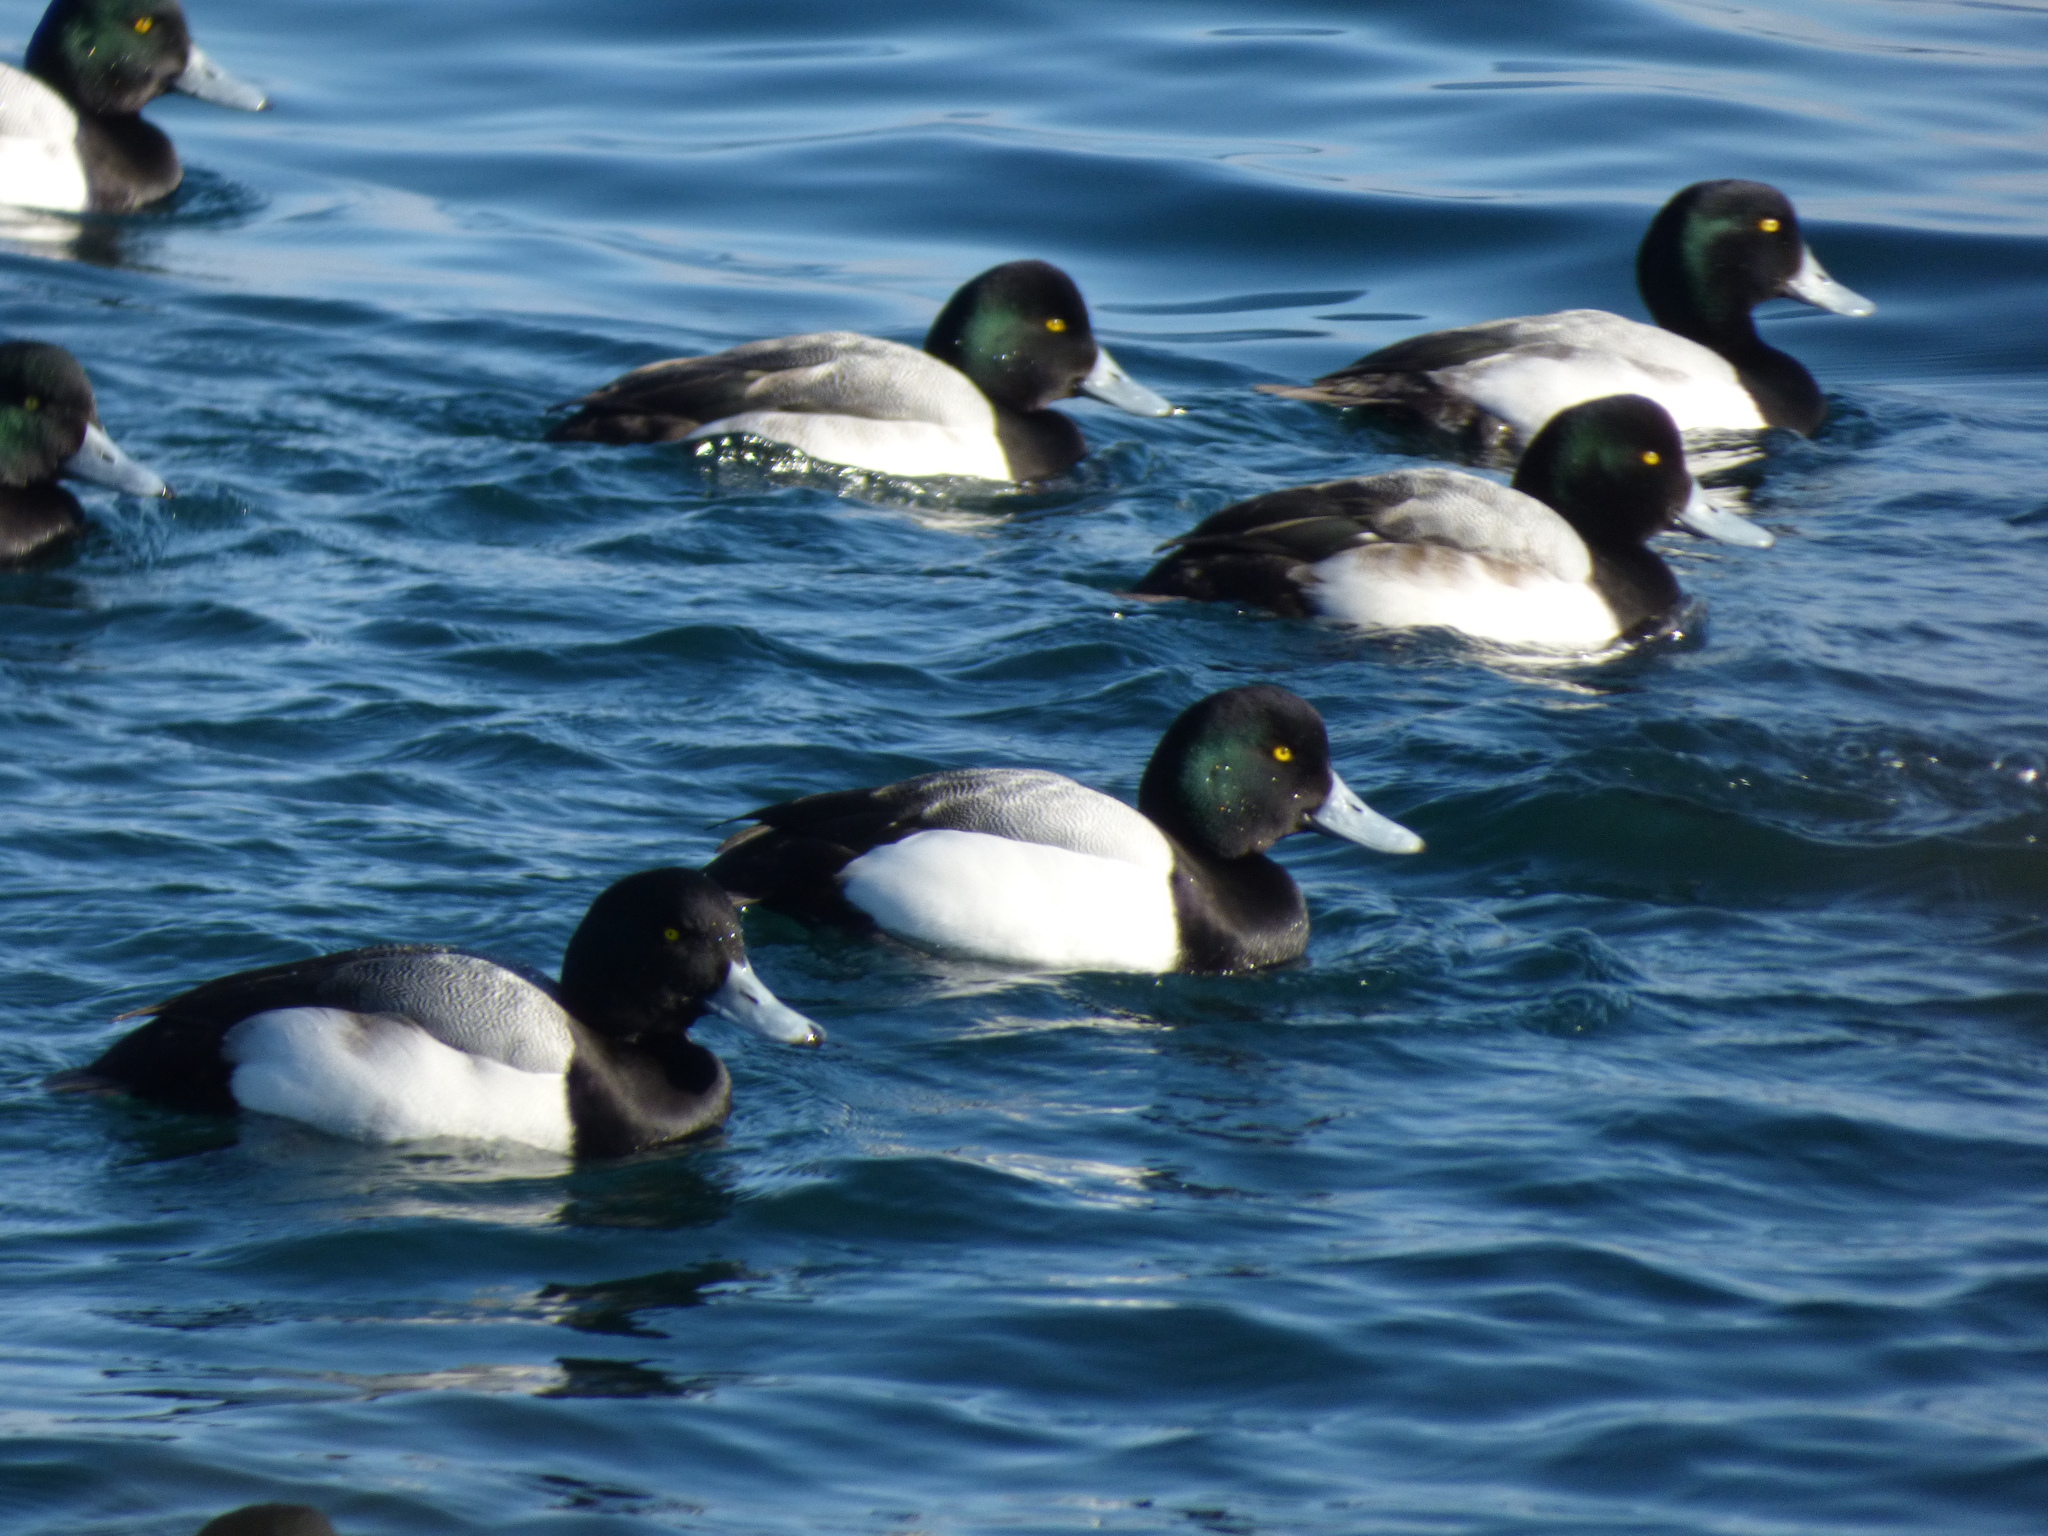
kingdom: Animalia
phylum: Chordata
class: Aves
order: Anseriformes
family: Anatidae
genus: Aythya
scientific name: Aythya marila
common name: Greater scaup
